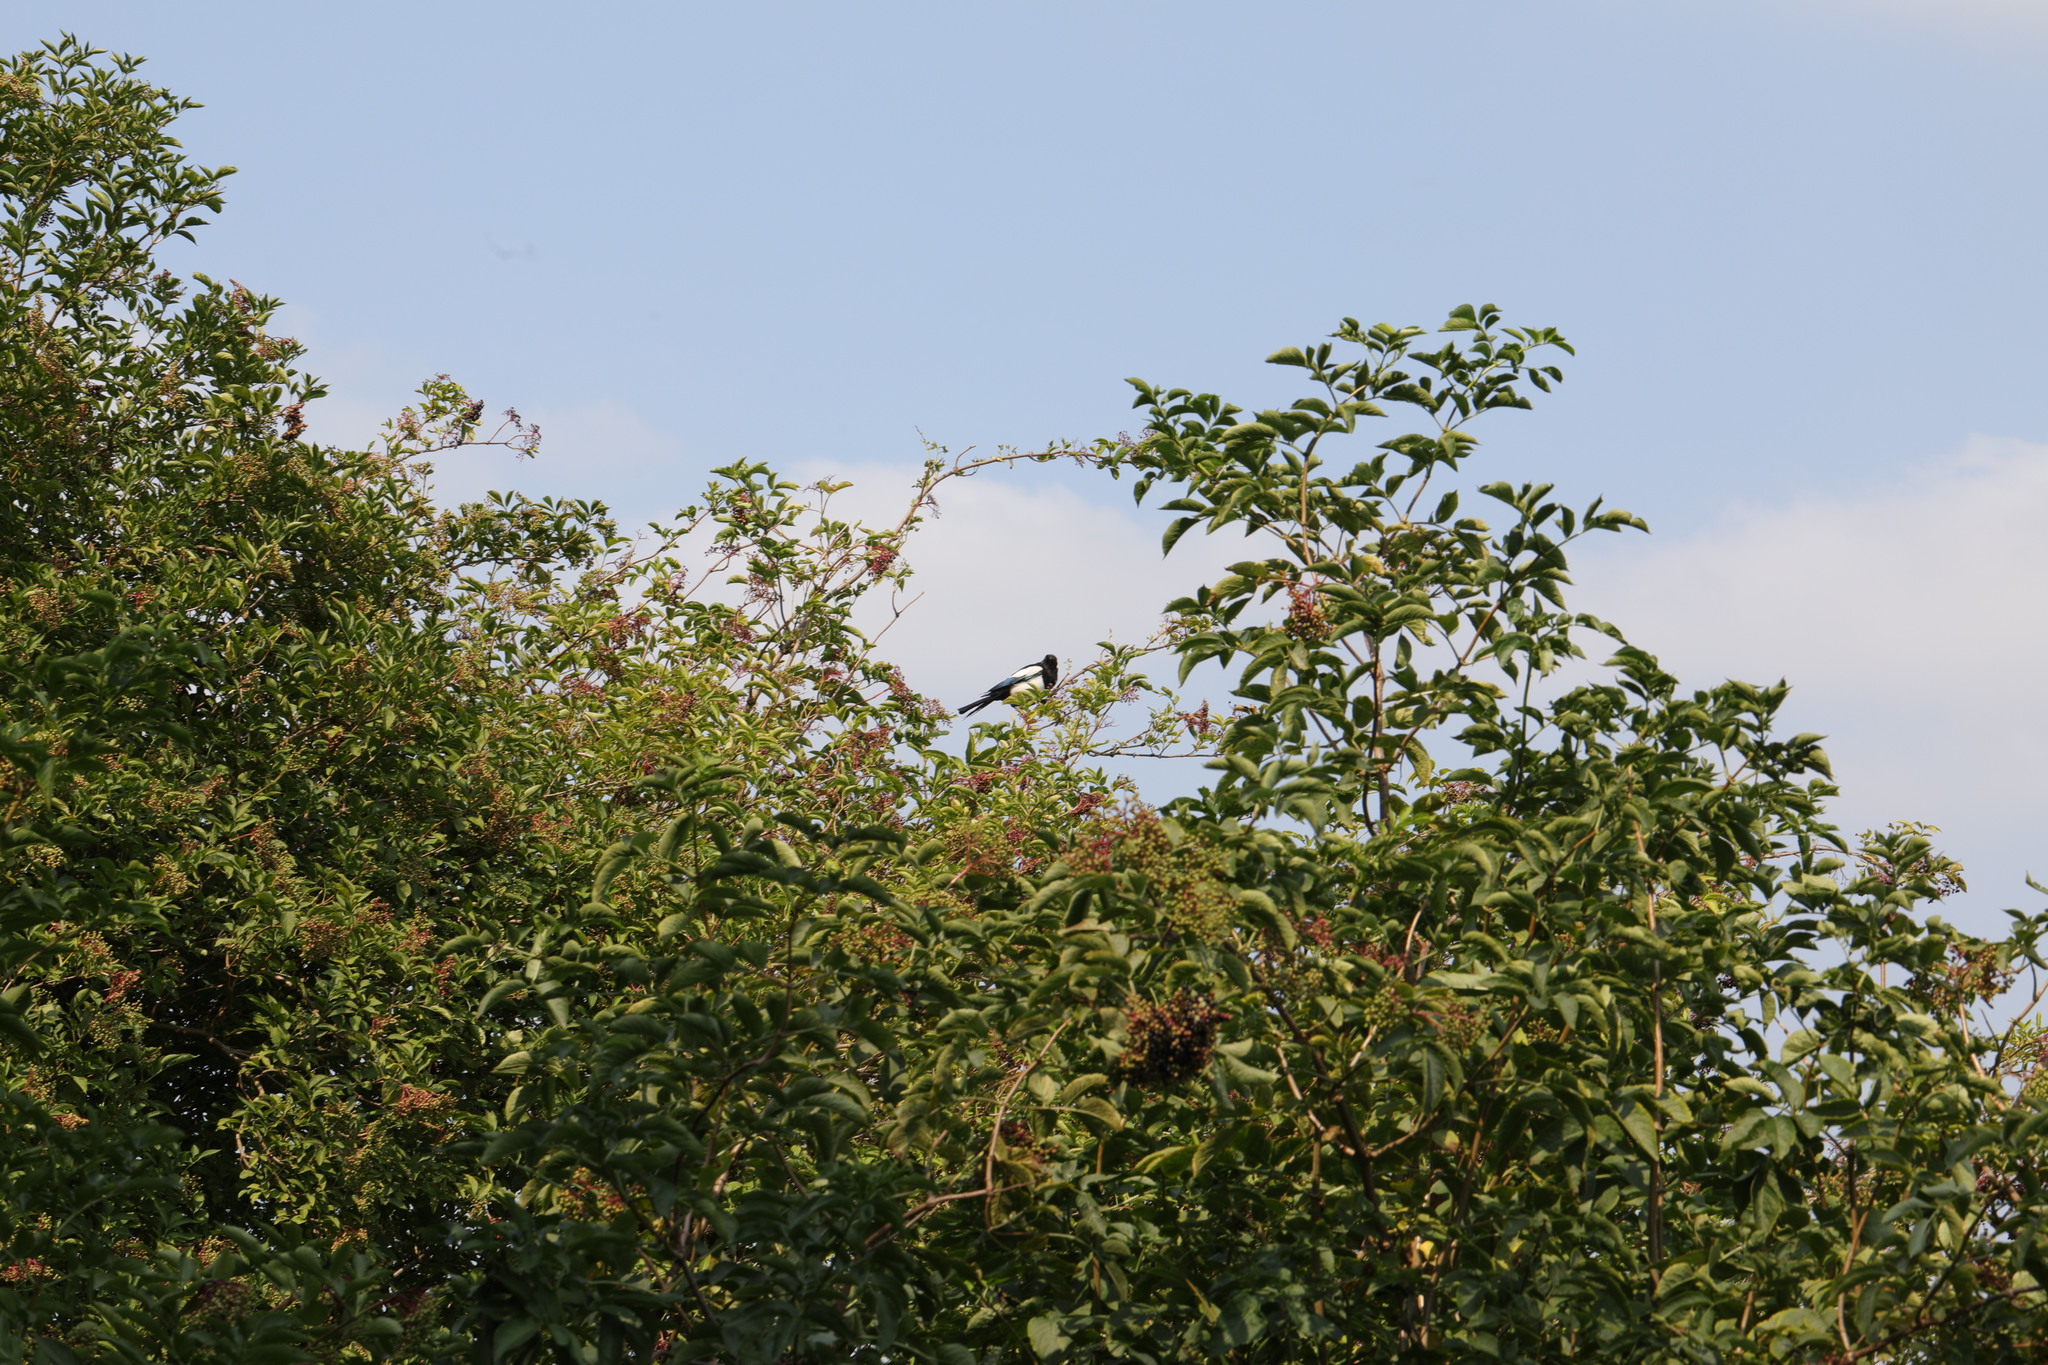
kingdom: Animalia
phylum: Chordata
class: Aves
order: Passeriformes
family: Corvidae
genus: Pica
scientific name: Pica pica
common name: Eurasian magpie
